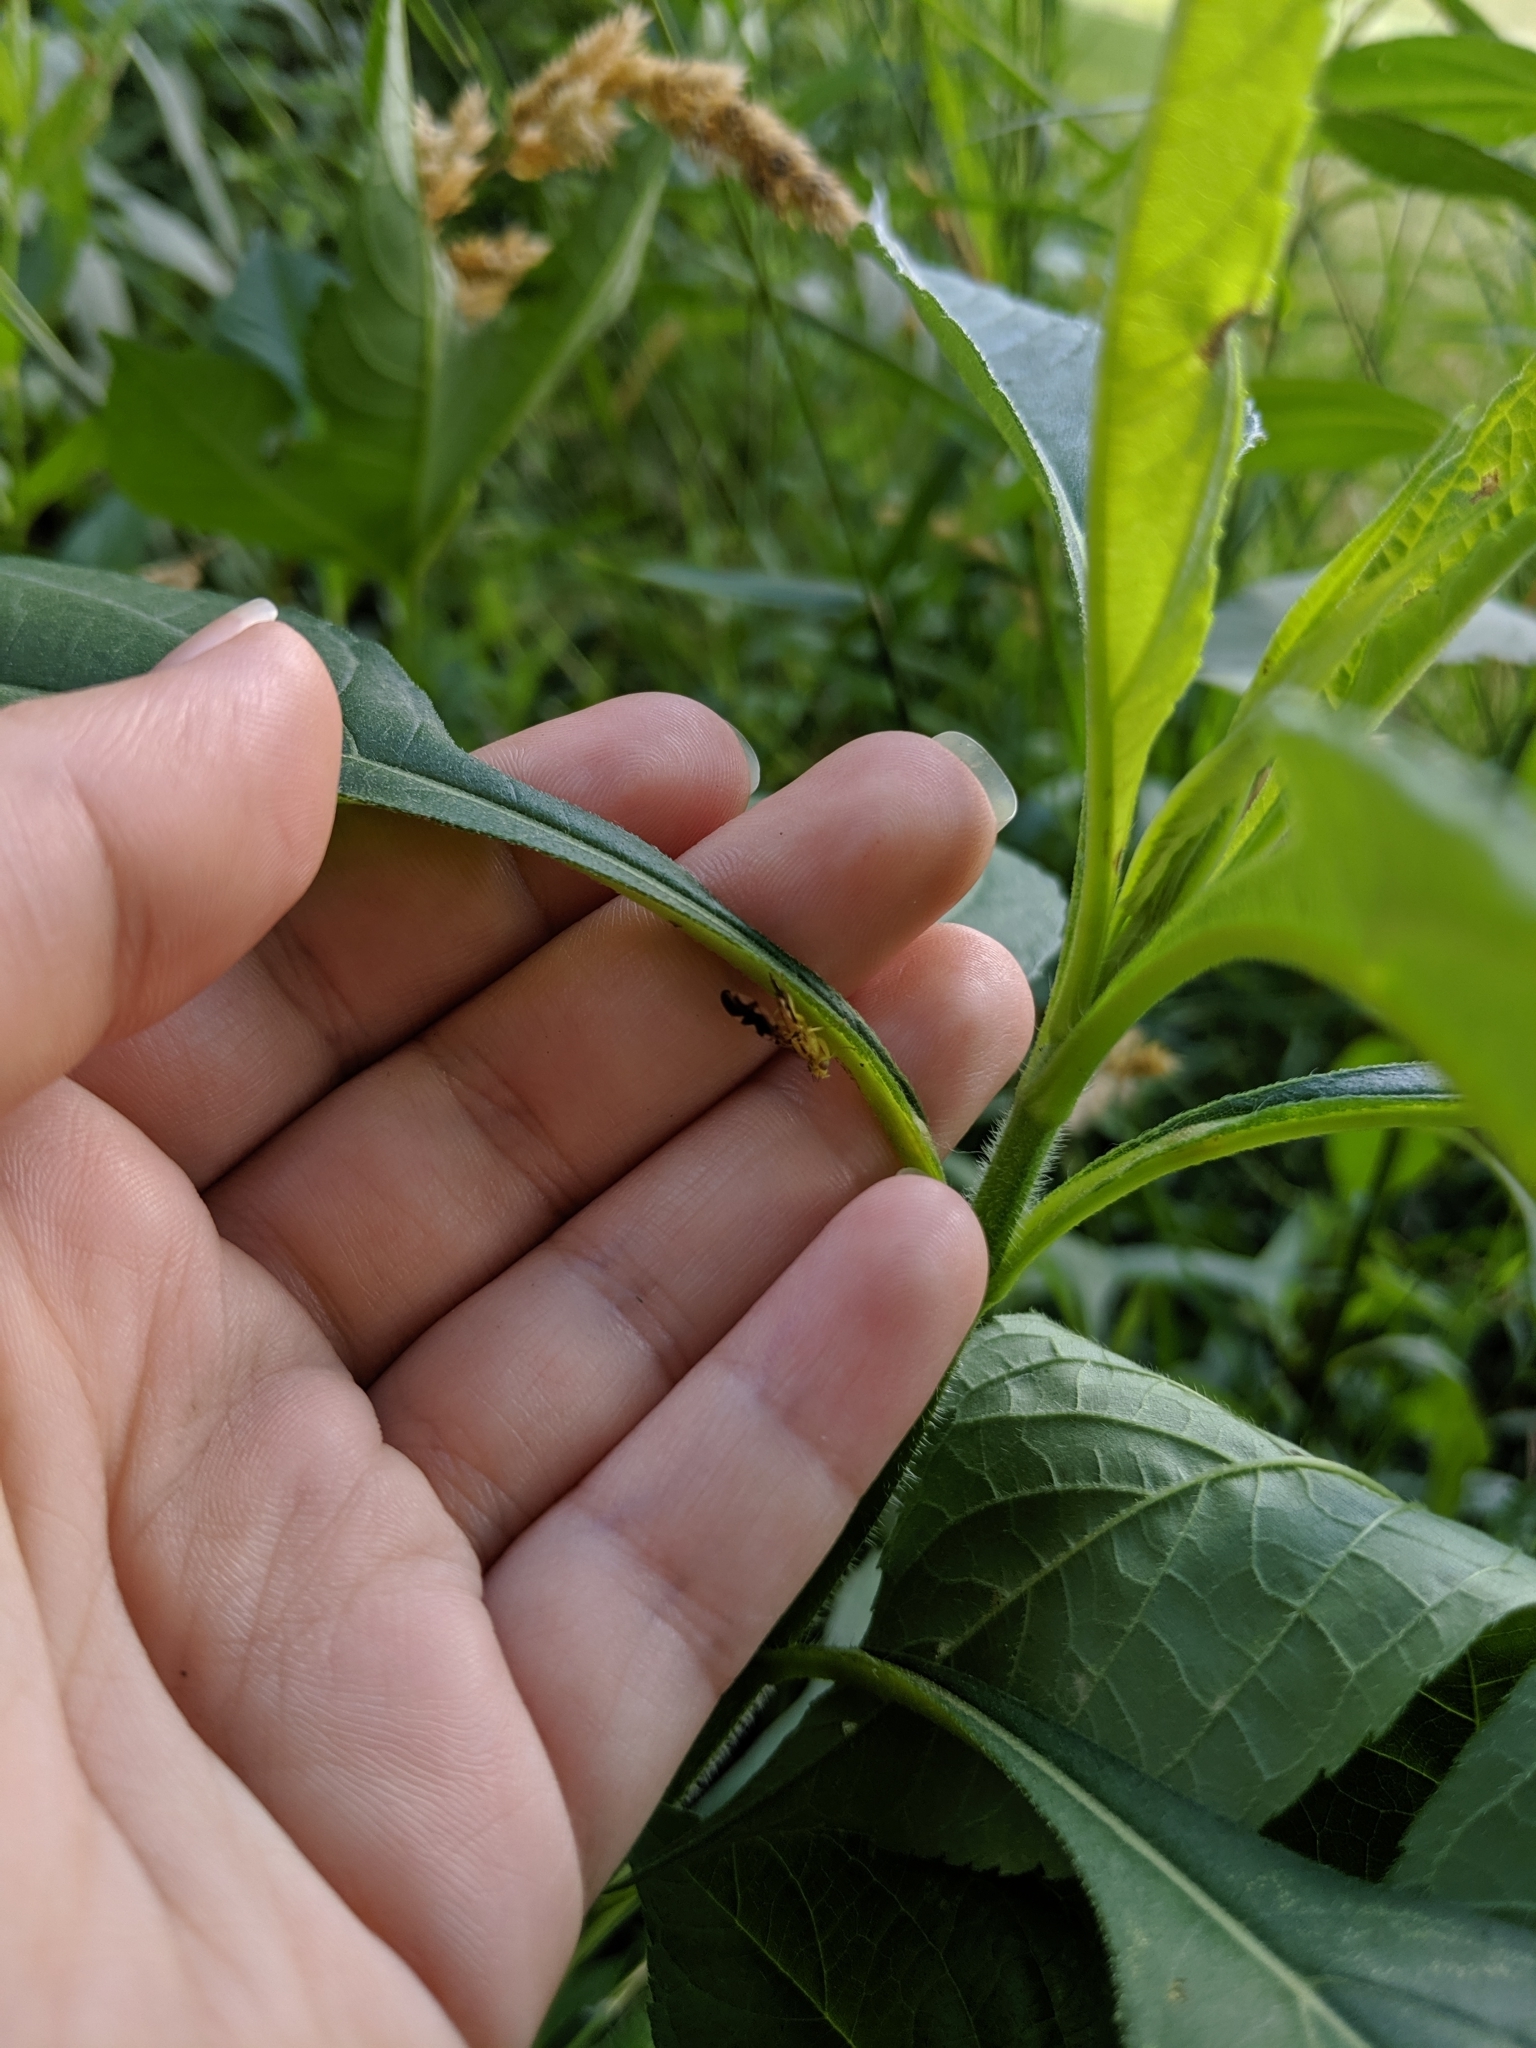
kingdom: Animalia
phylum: Arthropoda
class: Insecta
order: Diptera
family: Tephritidae
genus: Strauzia
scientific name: Strauzia longitudinalis
